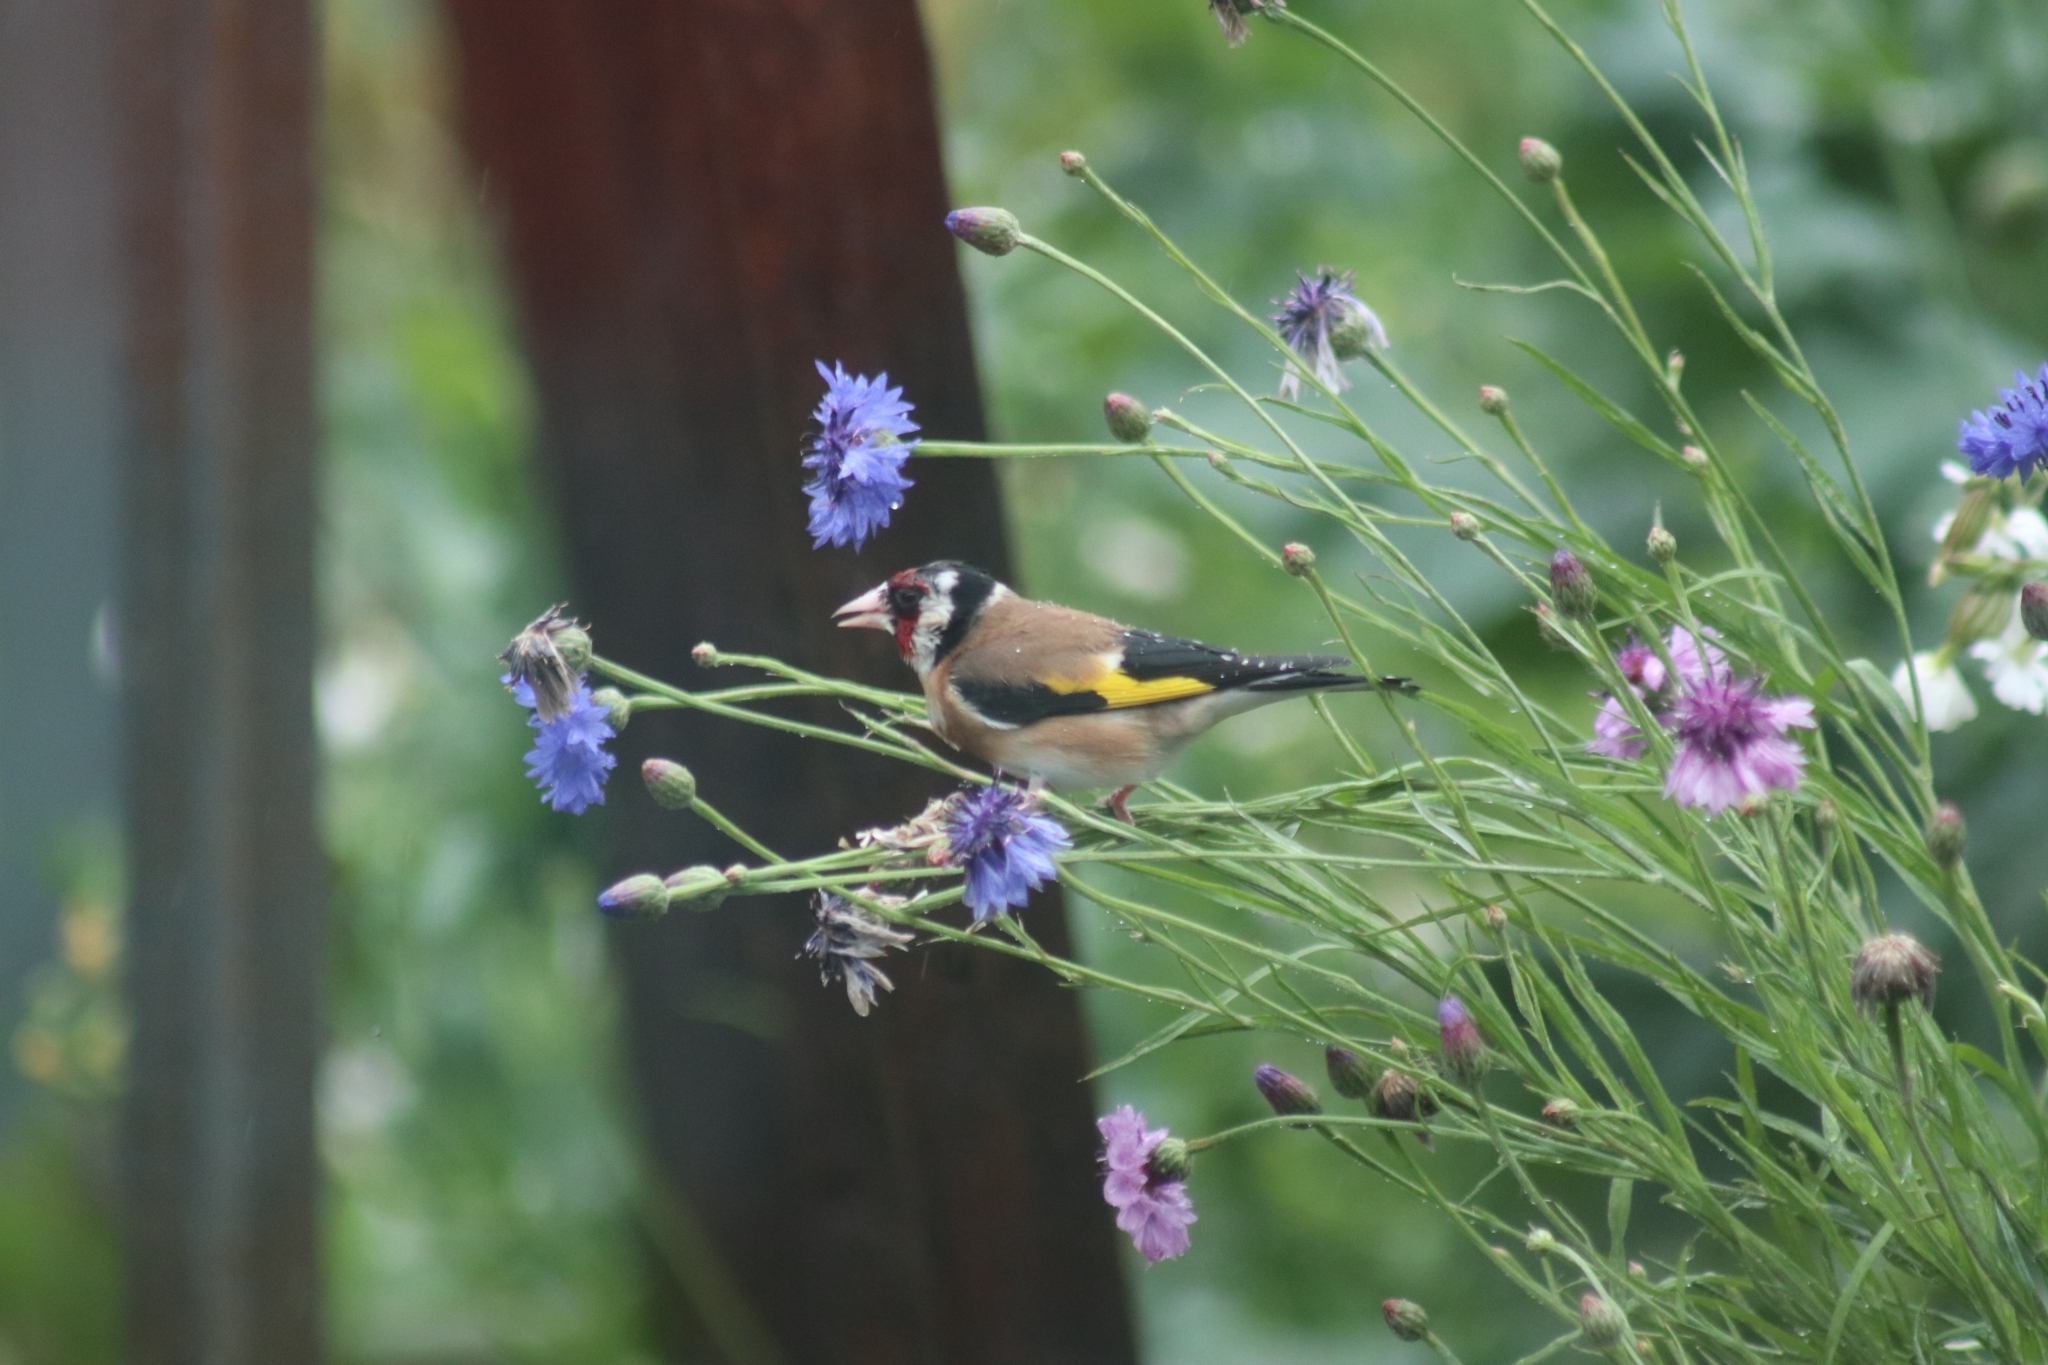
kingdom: Animalia
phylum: Chordata
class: Aves
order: Passeriformes
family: Fringillidae
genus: Carduelis
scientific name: Carduelis carduelis
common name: European goldfinch
